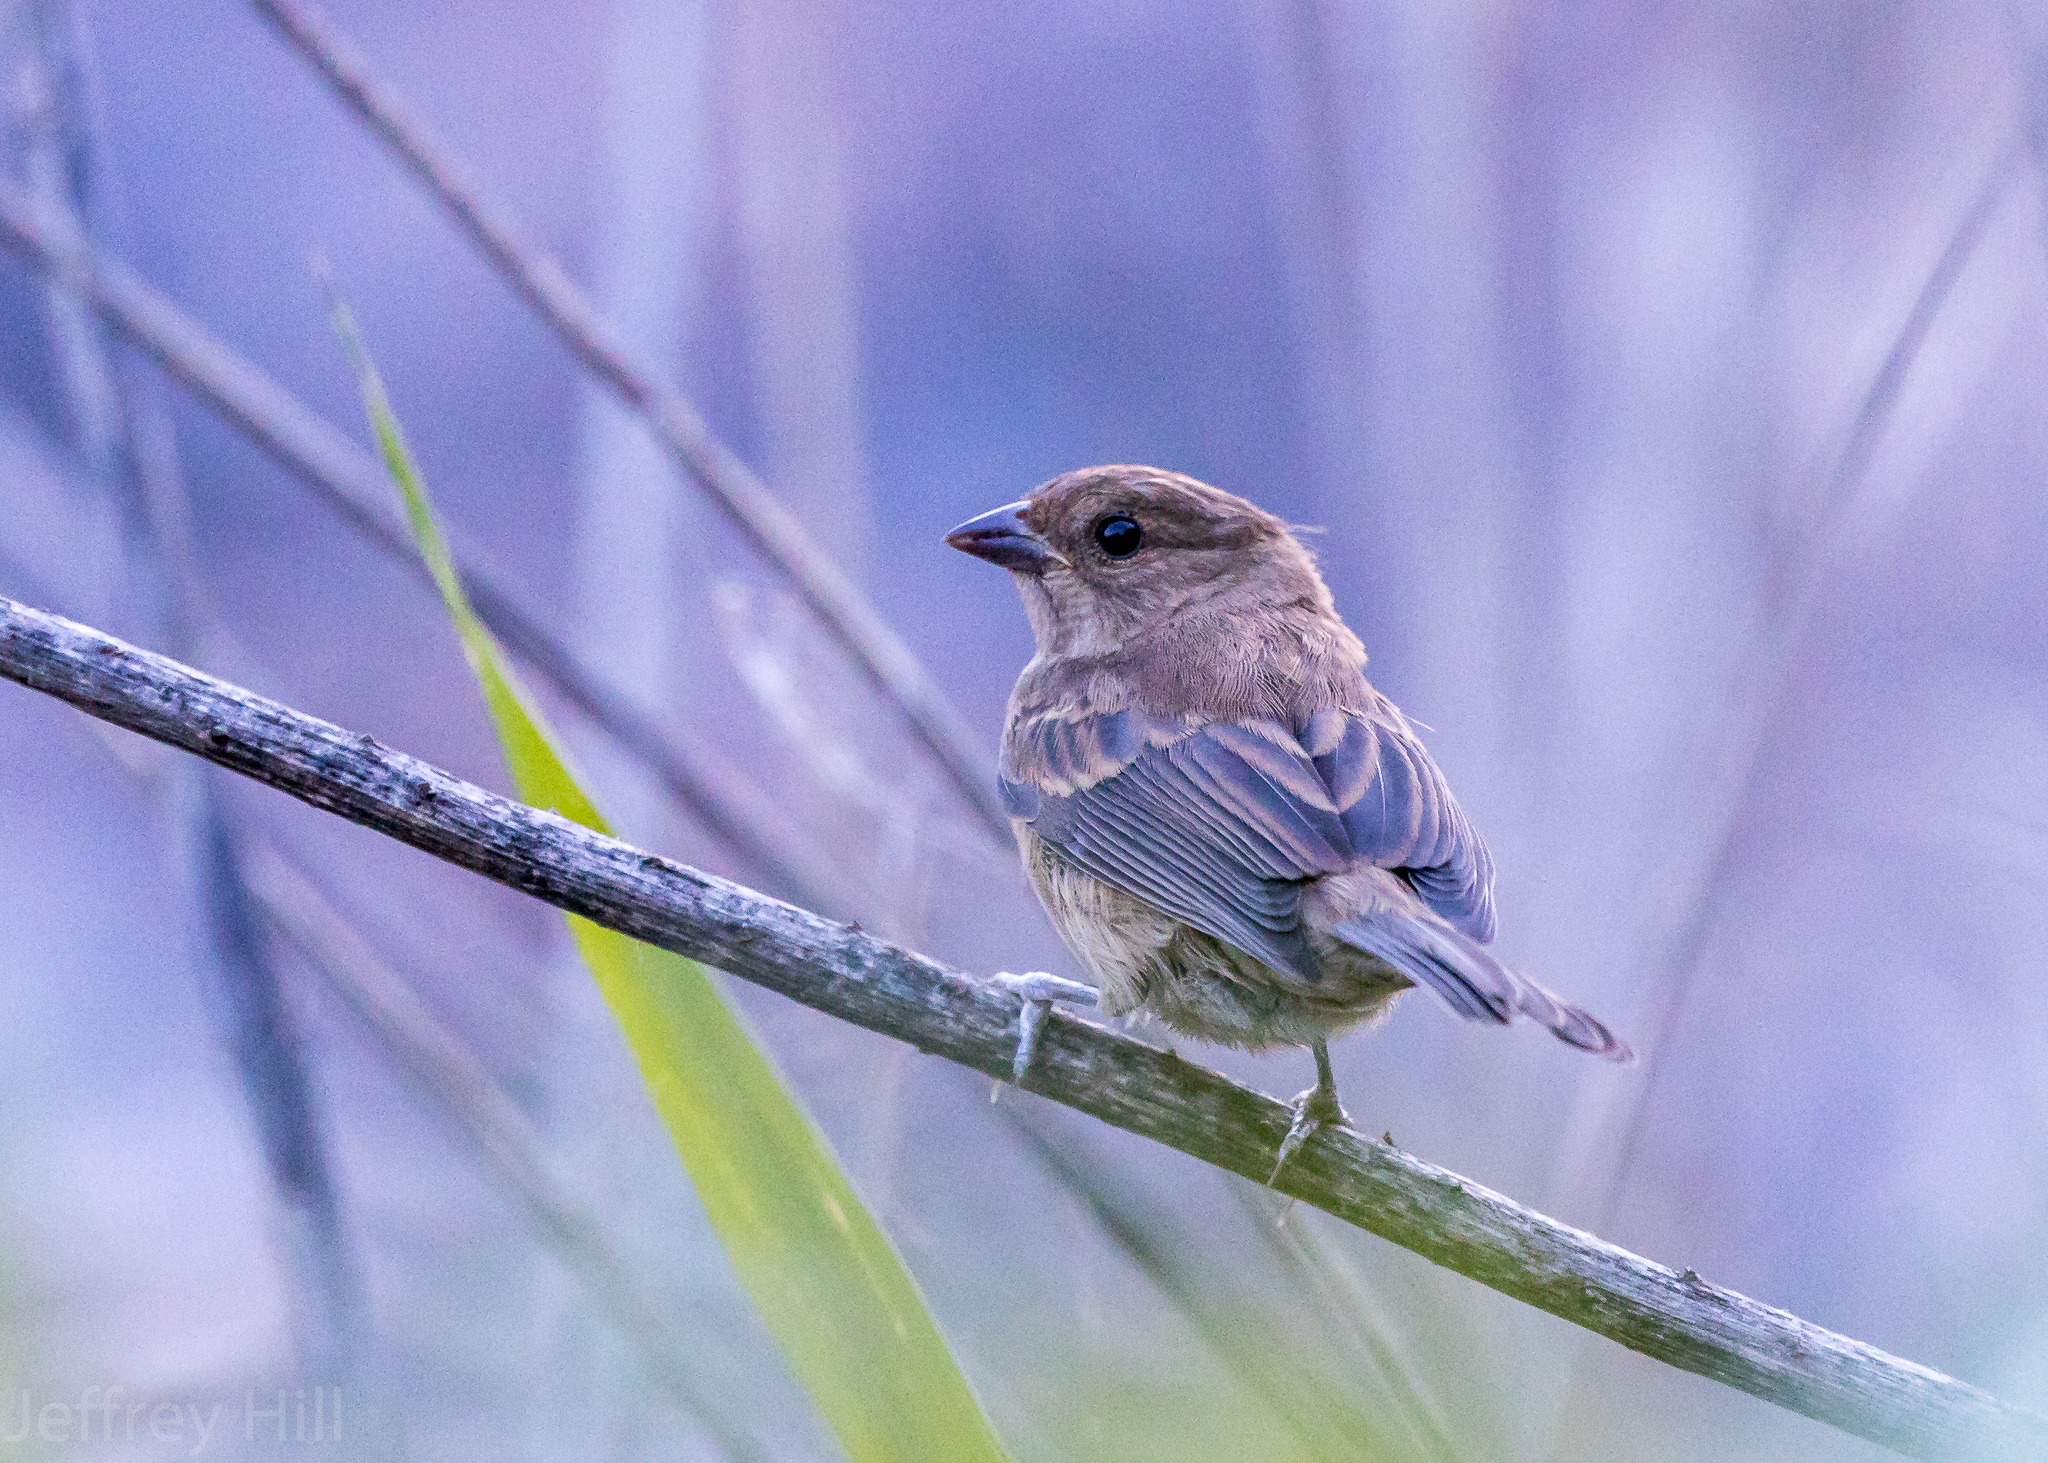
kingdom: Animalia
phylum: Chordata
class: Aves
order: Passeriformes
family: Cardinalidae
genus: Passerina
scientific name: Passerina cyanea
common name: Indigo bunting
